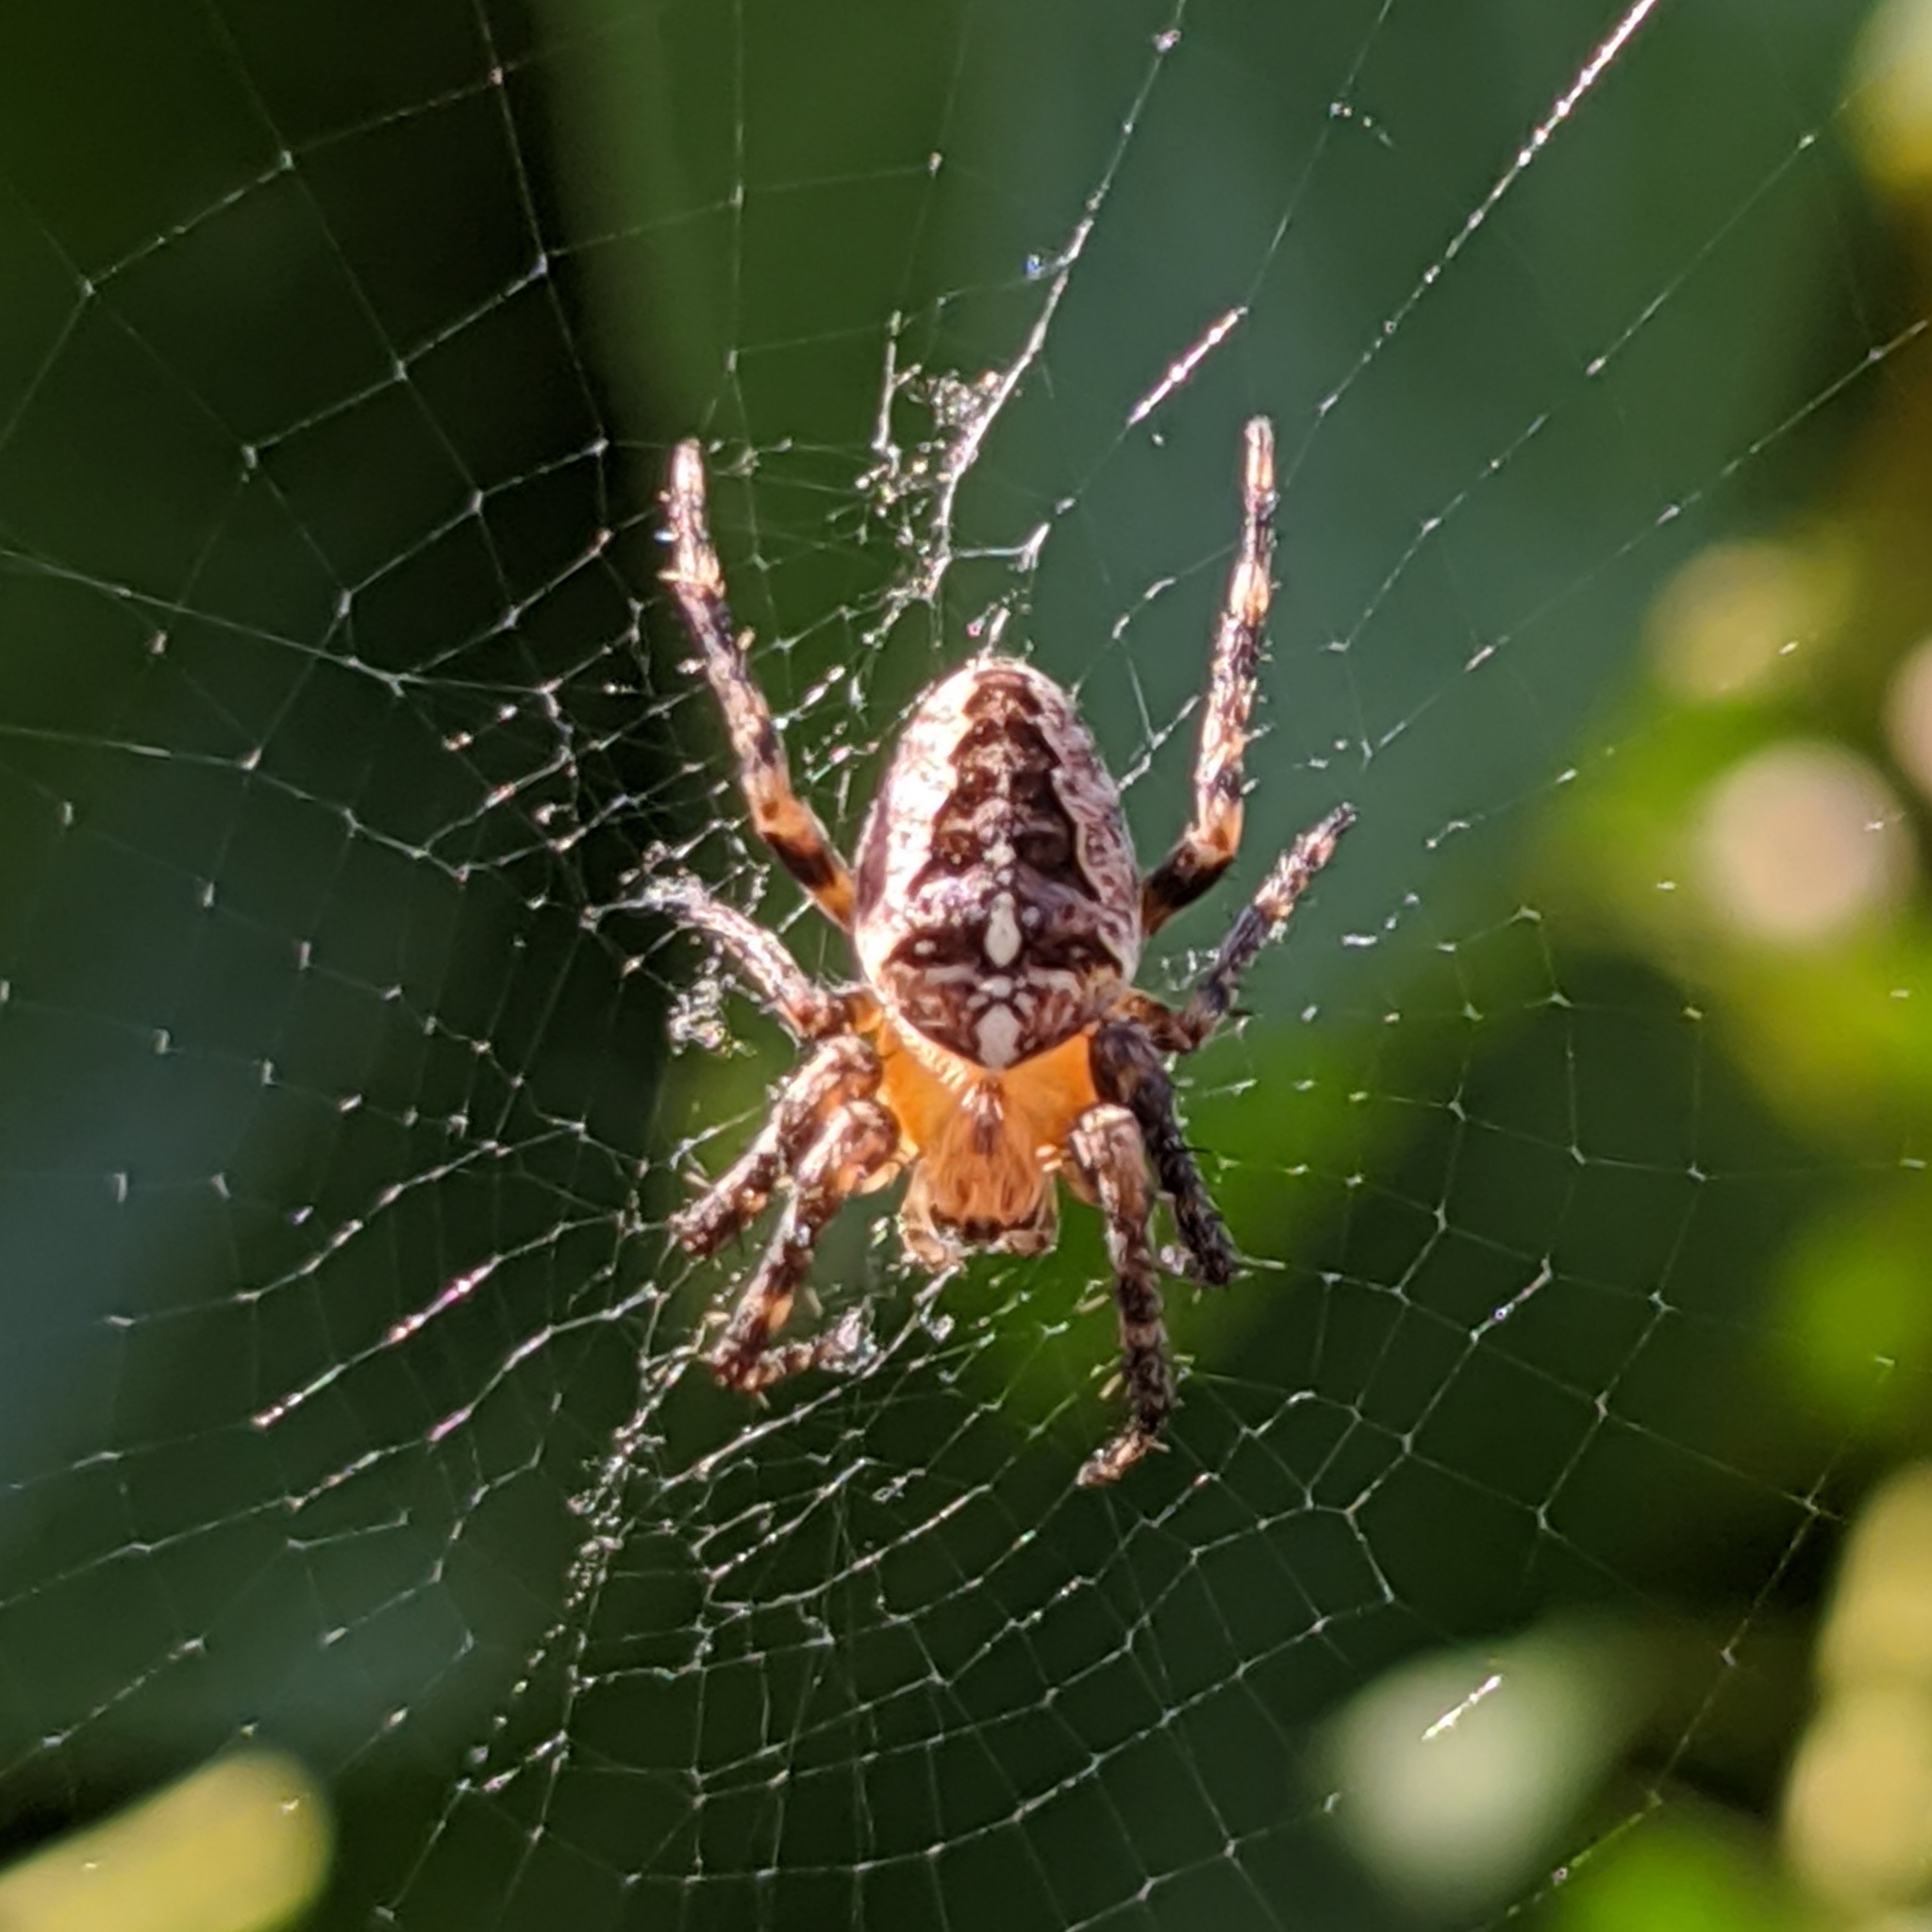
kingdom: Animalia
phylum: Arthropoda
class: Arachnida
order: Araneae
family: Araneidae
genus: Araneus
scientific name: Araneus diadematus
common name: Cross orbweaver
